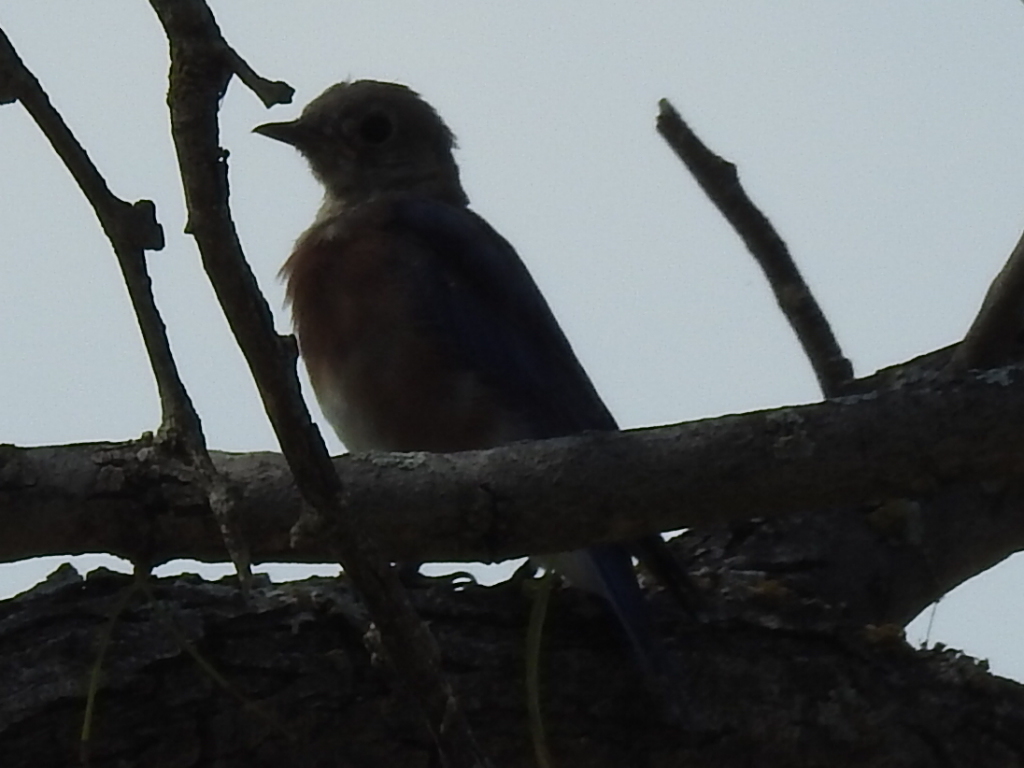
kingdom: Animalia
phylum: Chordata
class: Aves
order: Passeriformes
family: Turdidae
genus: Sialia
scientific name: Sialia sialis
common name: Eastern bluebird
